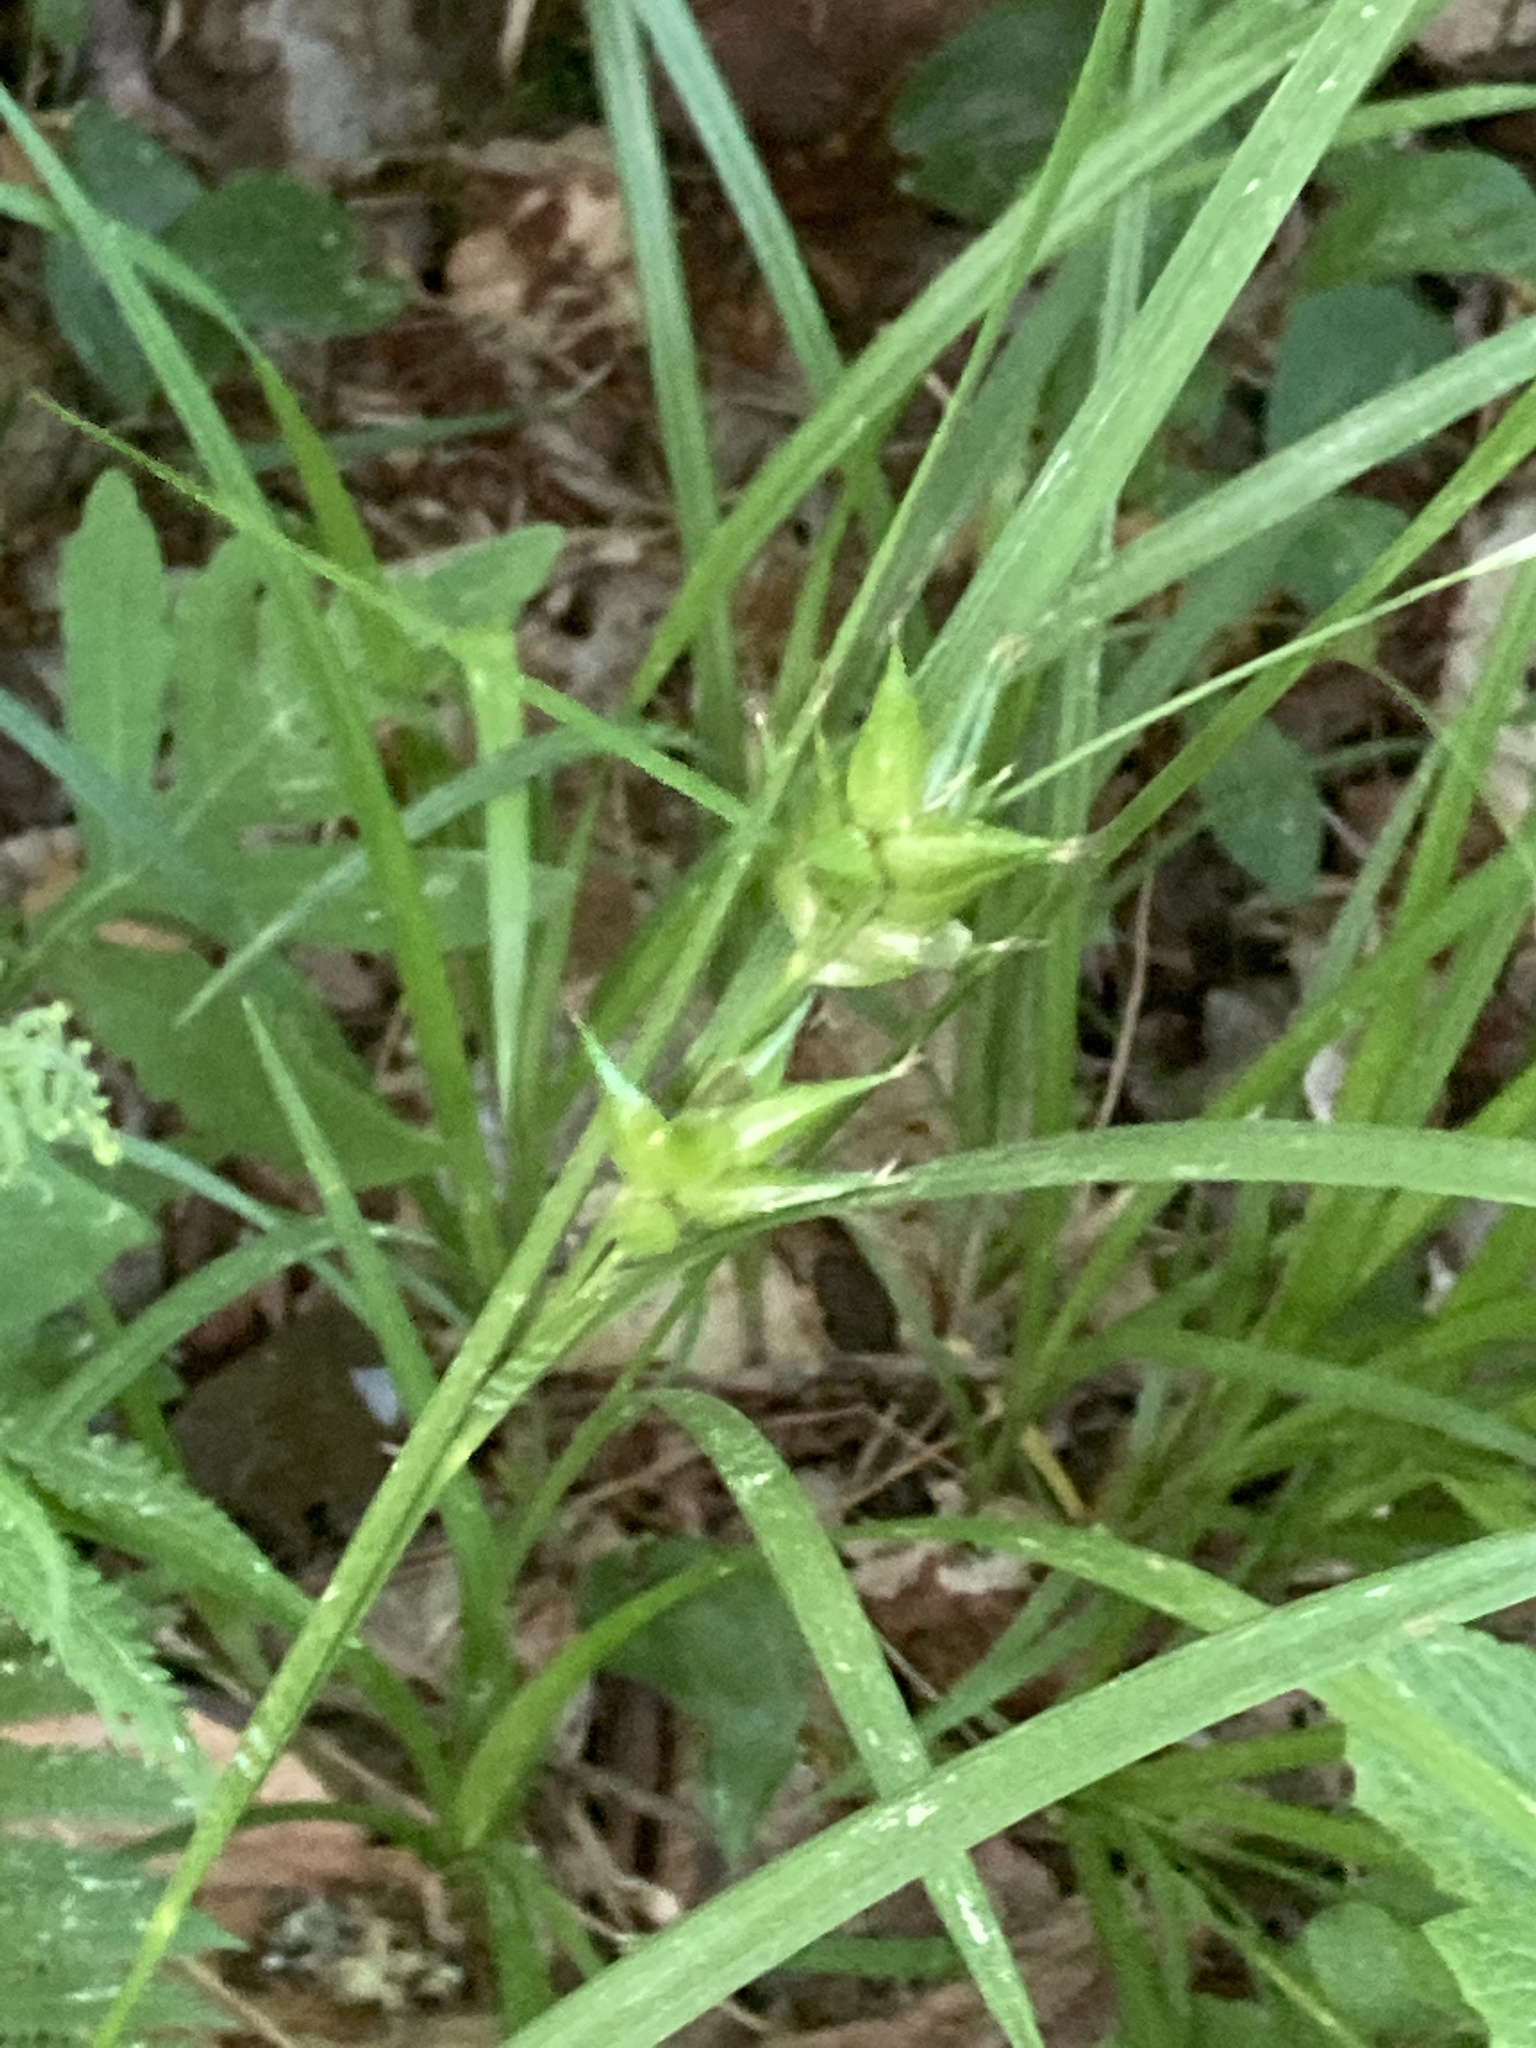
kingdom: Plantae
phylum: Tracheophyta
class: Liliopsida
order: Poales
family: Cyperaceae
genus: Carex
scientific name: Carex intumescens
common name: Greater bladder sedge
